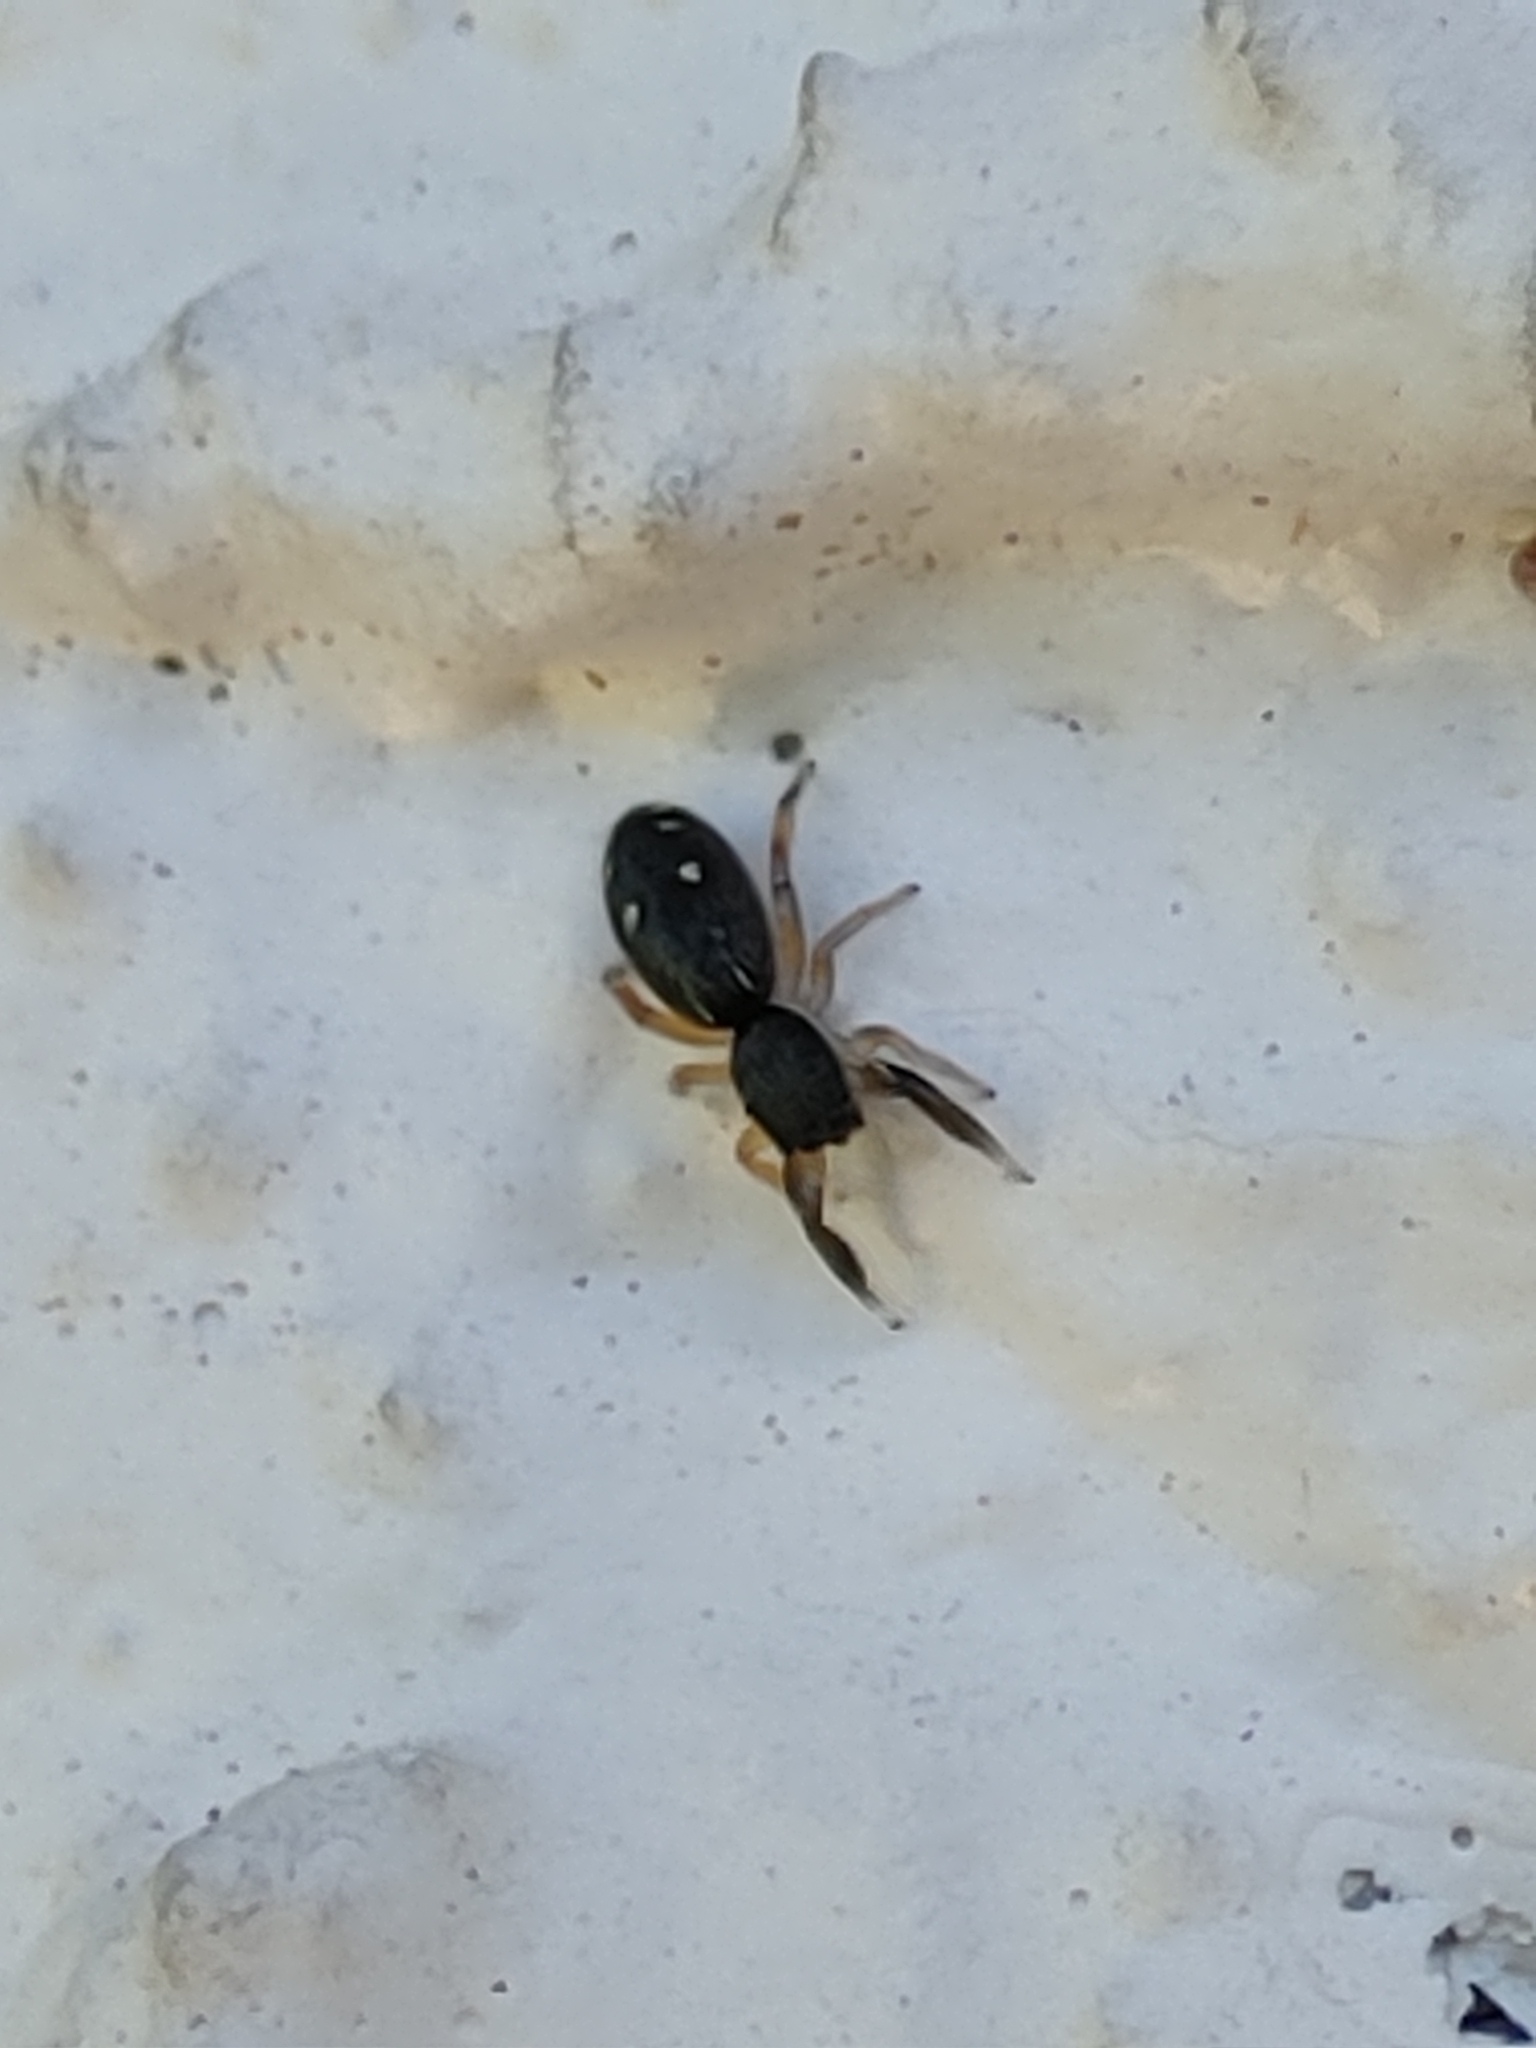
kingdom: Animalia
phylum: Arthropoda
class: Arachnida
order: Araneae
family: Salticidae
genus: Metacyrba
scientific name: Metacyrba punctata
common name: Jumping spiders
